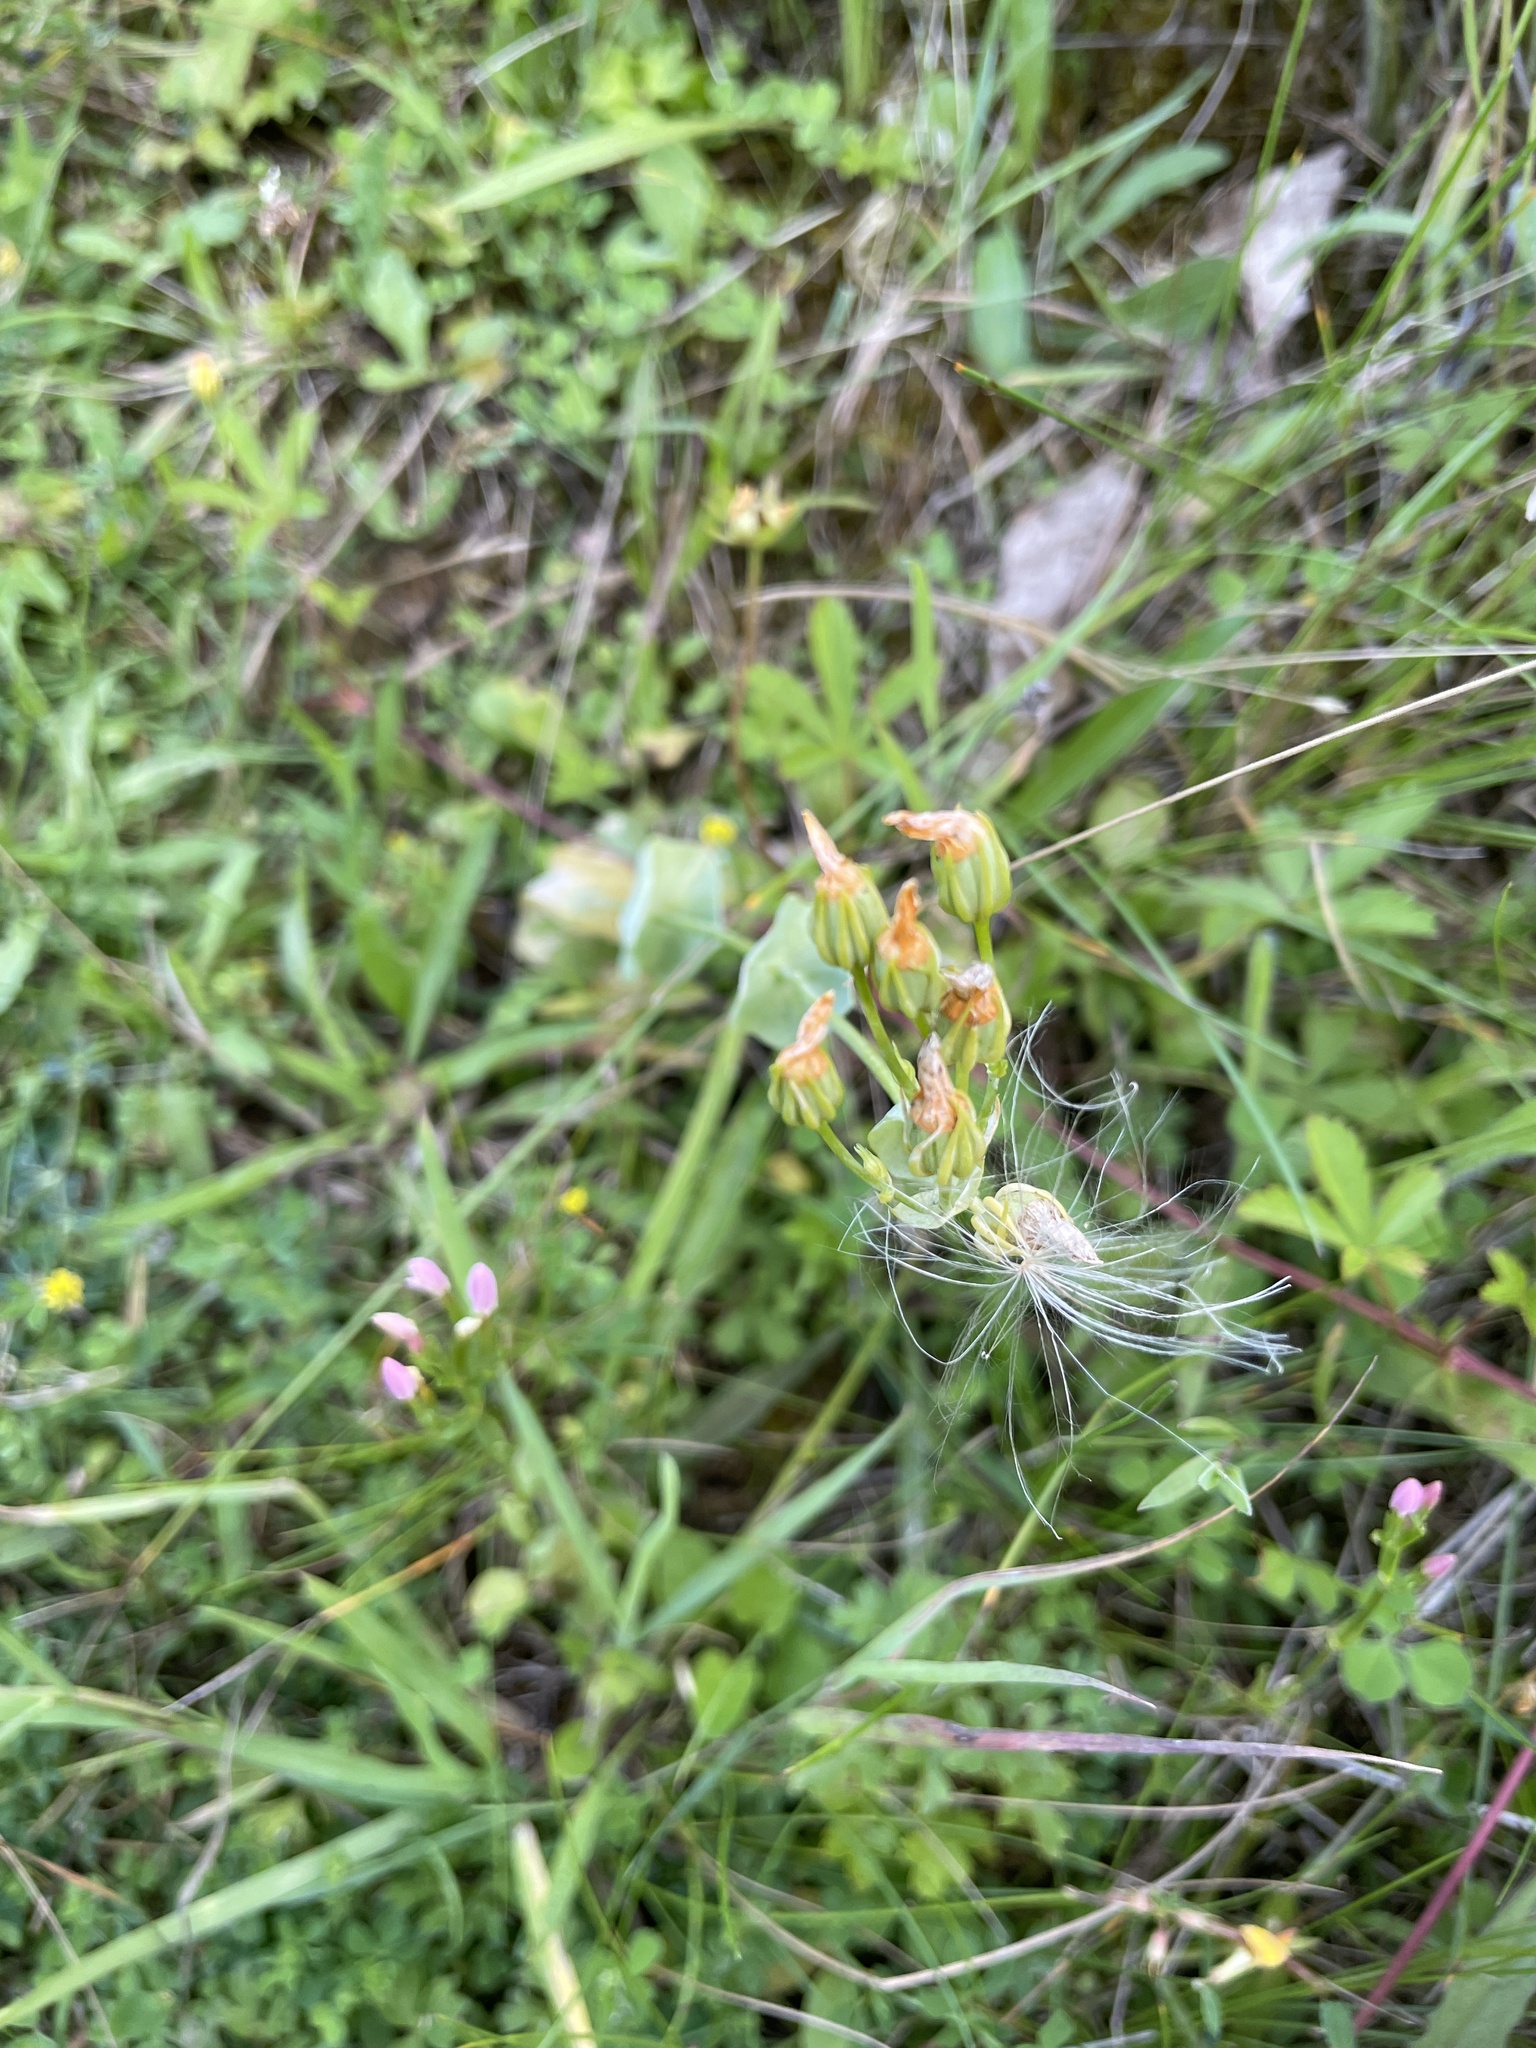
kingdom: Plantae
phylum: Tracheophyta
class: Magnoliopsida
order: Gentianales
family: Gentianaceae
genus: Blackstonia
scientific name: Blackstonia perfoliata
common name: Yellow-wort
